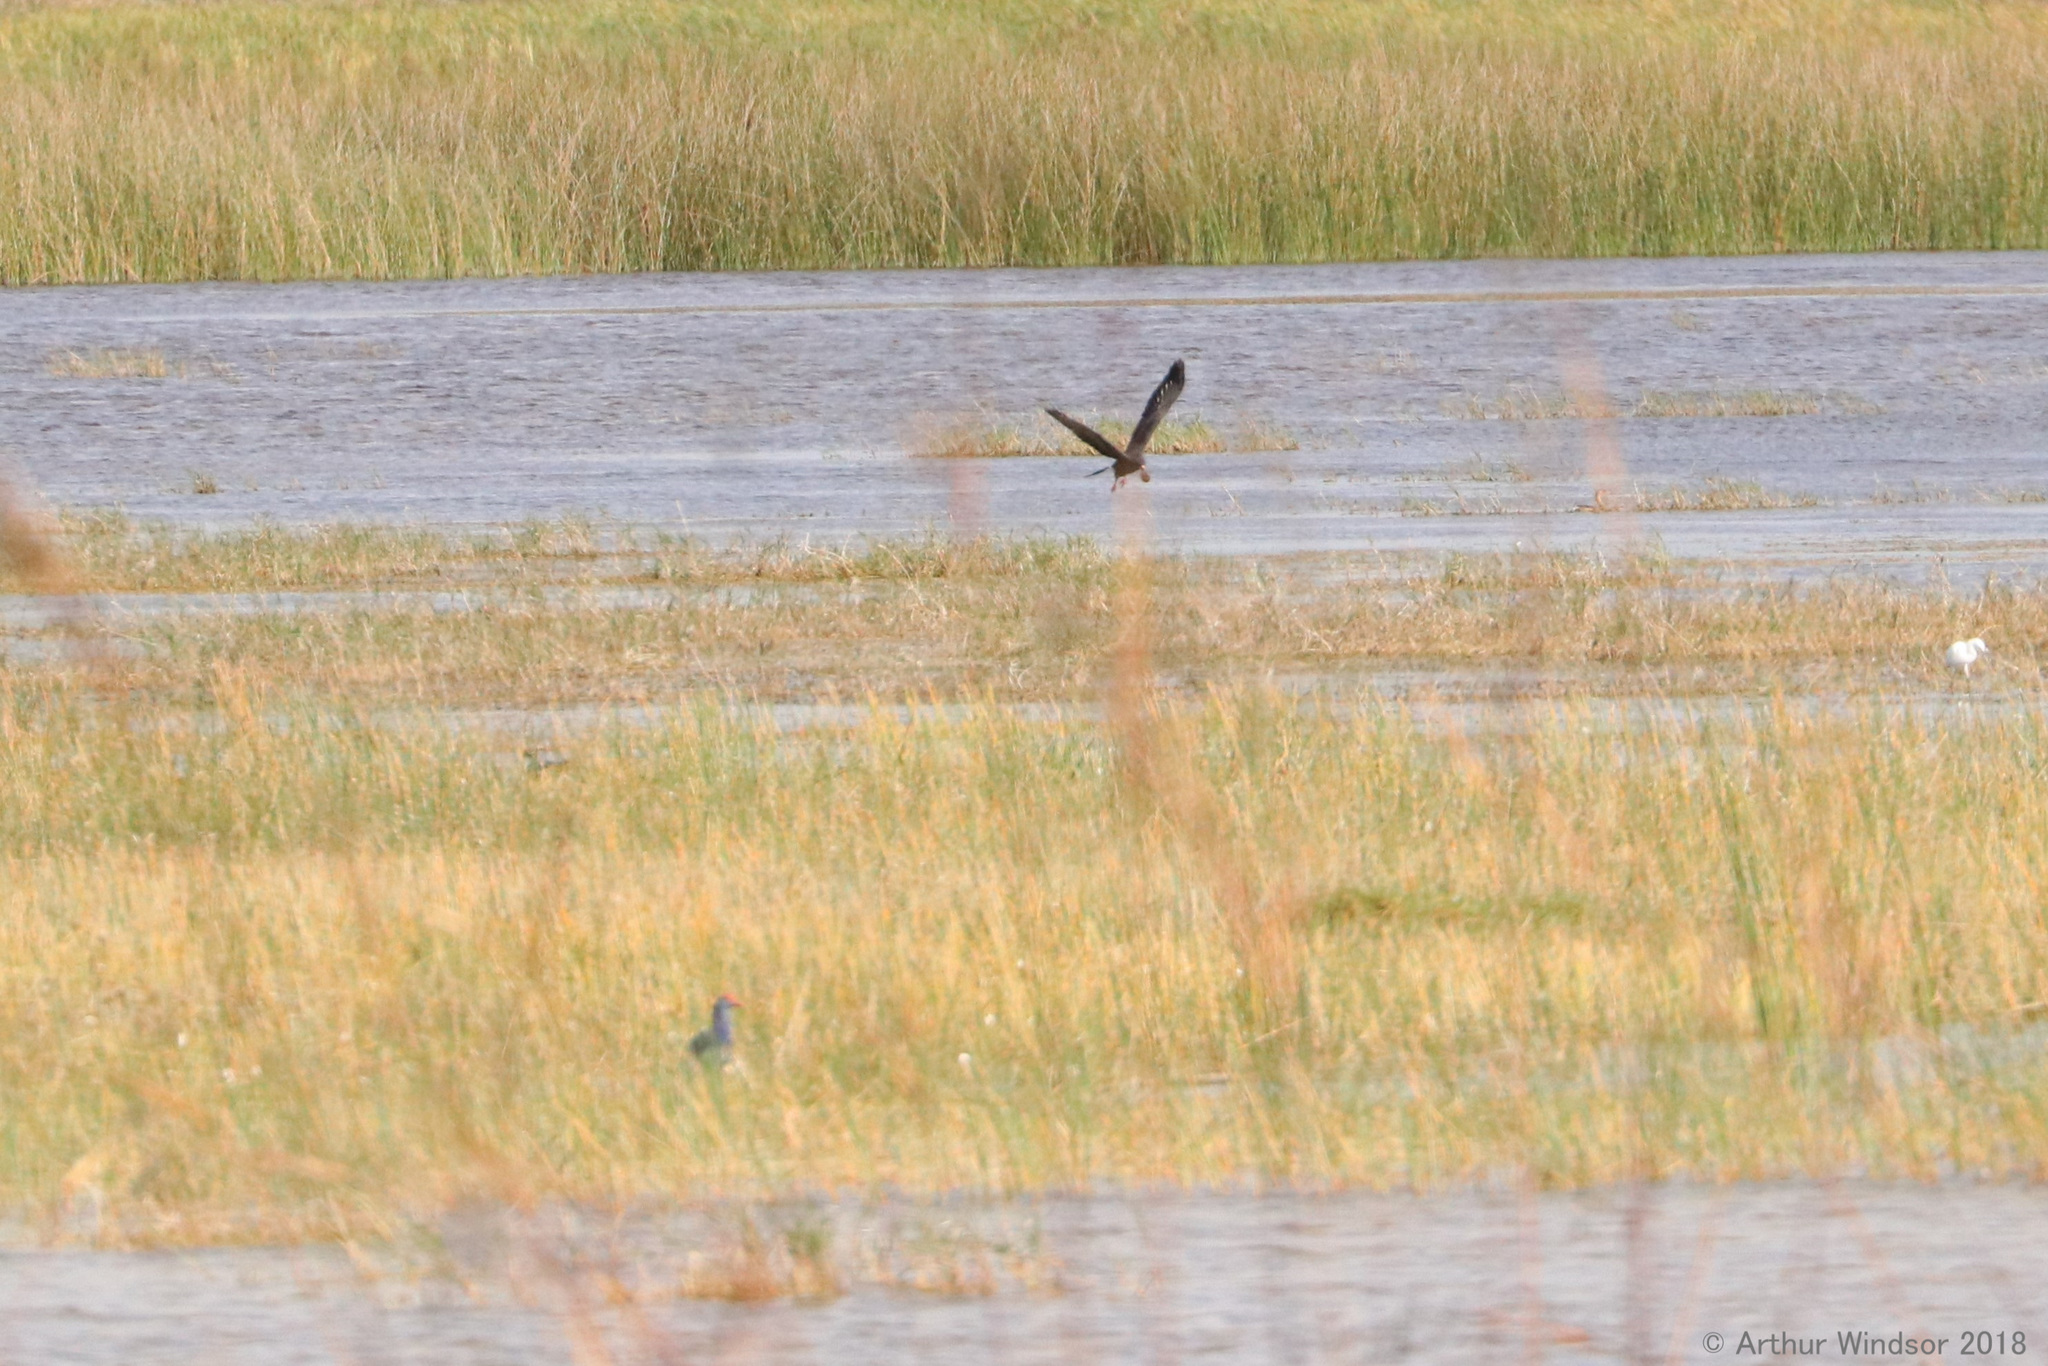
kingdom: Animalia
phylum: Chordata
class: Aves
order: Accipitriformes
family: Accipitridae
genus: Rostrhamus
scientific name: Rostrhamus sociabilis
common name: Snail kite
